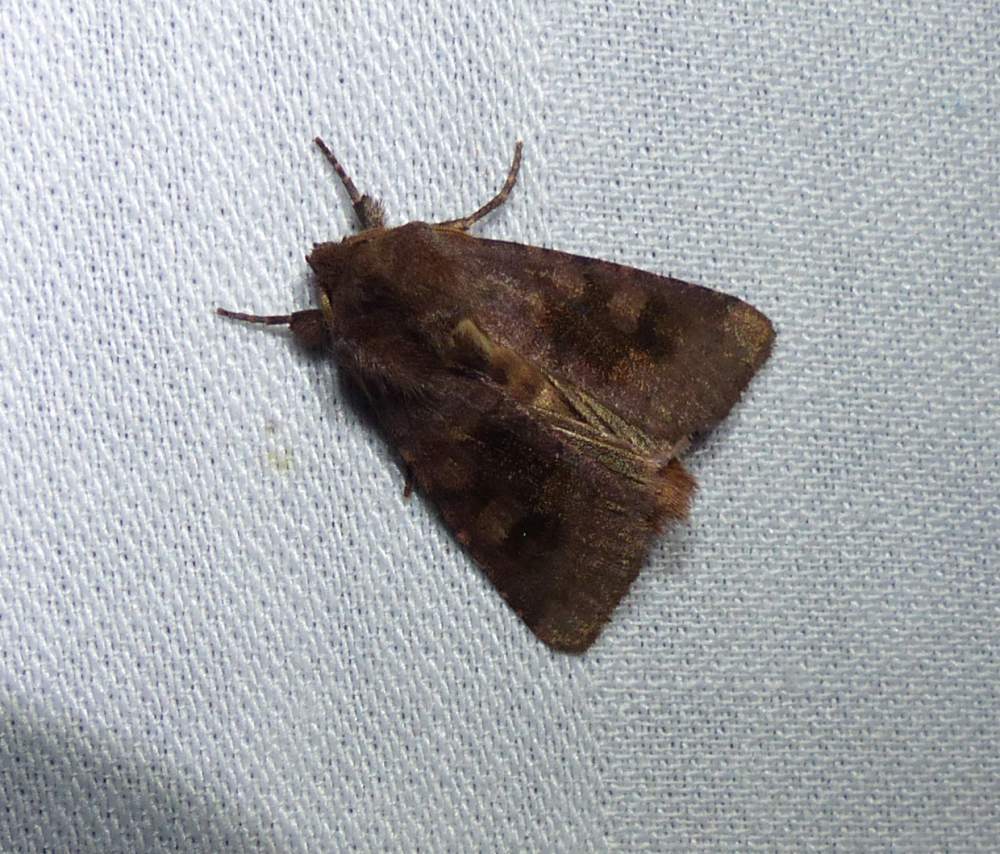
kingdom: Animalia
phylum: Arthropoda
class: Insecta
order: Lepidoptera
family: Noctuidae
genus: Nephelodes
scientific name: Nephelodes minians
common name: Bronzed cutworm
